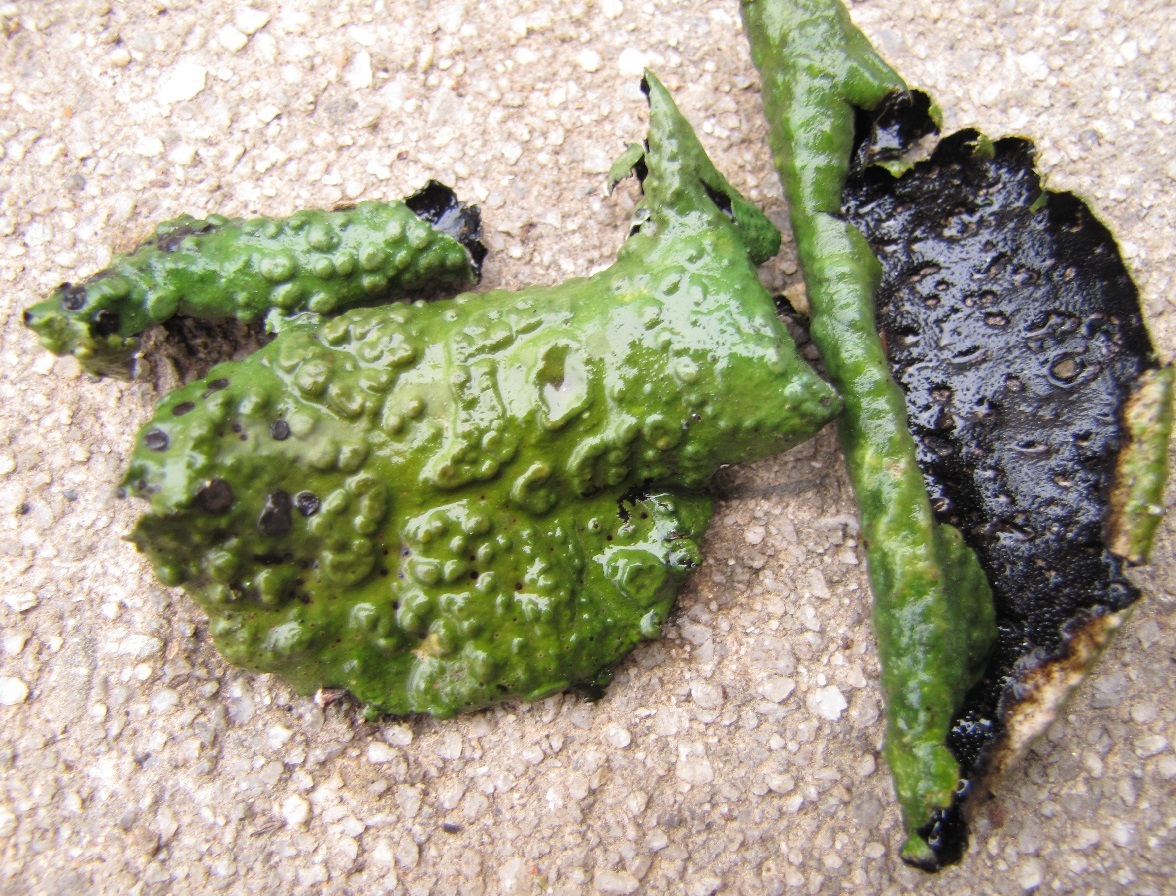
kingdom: Fungi
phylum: Ascomycota
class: Lecanoromycetes
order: Umbilicariales
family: Umbilicariaceae
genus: Lasallia
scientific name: Lasallia pensylvanica
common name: Blackened toadskin lichen
